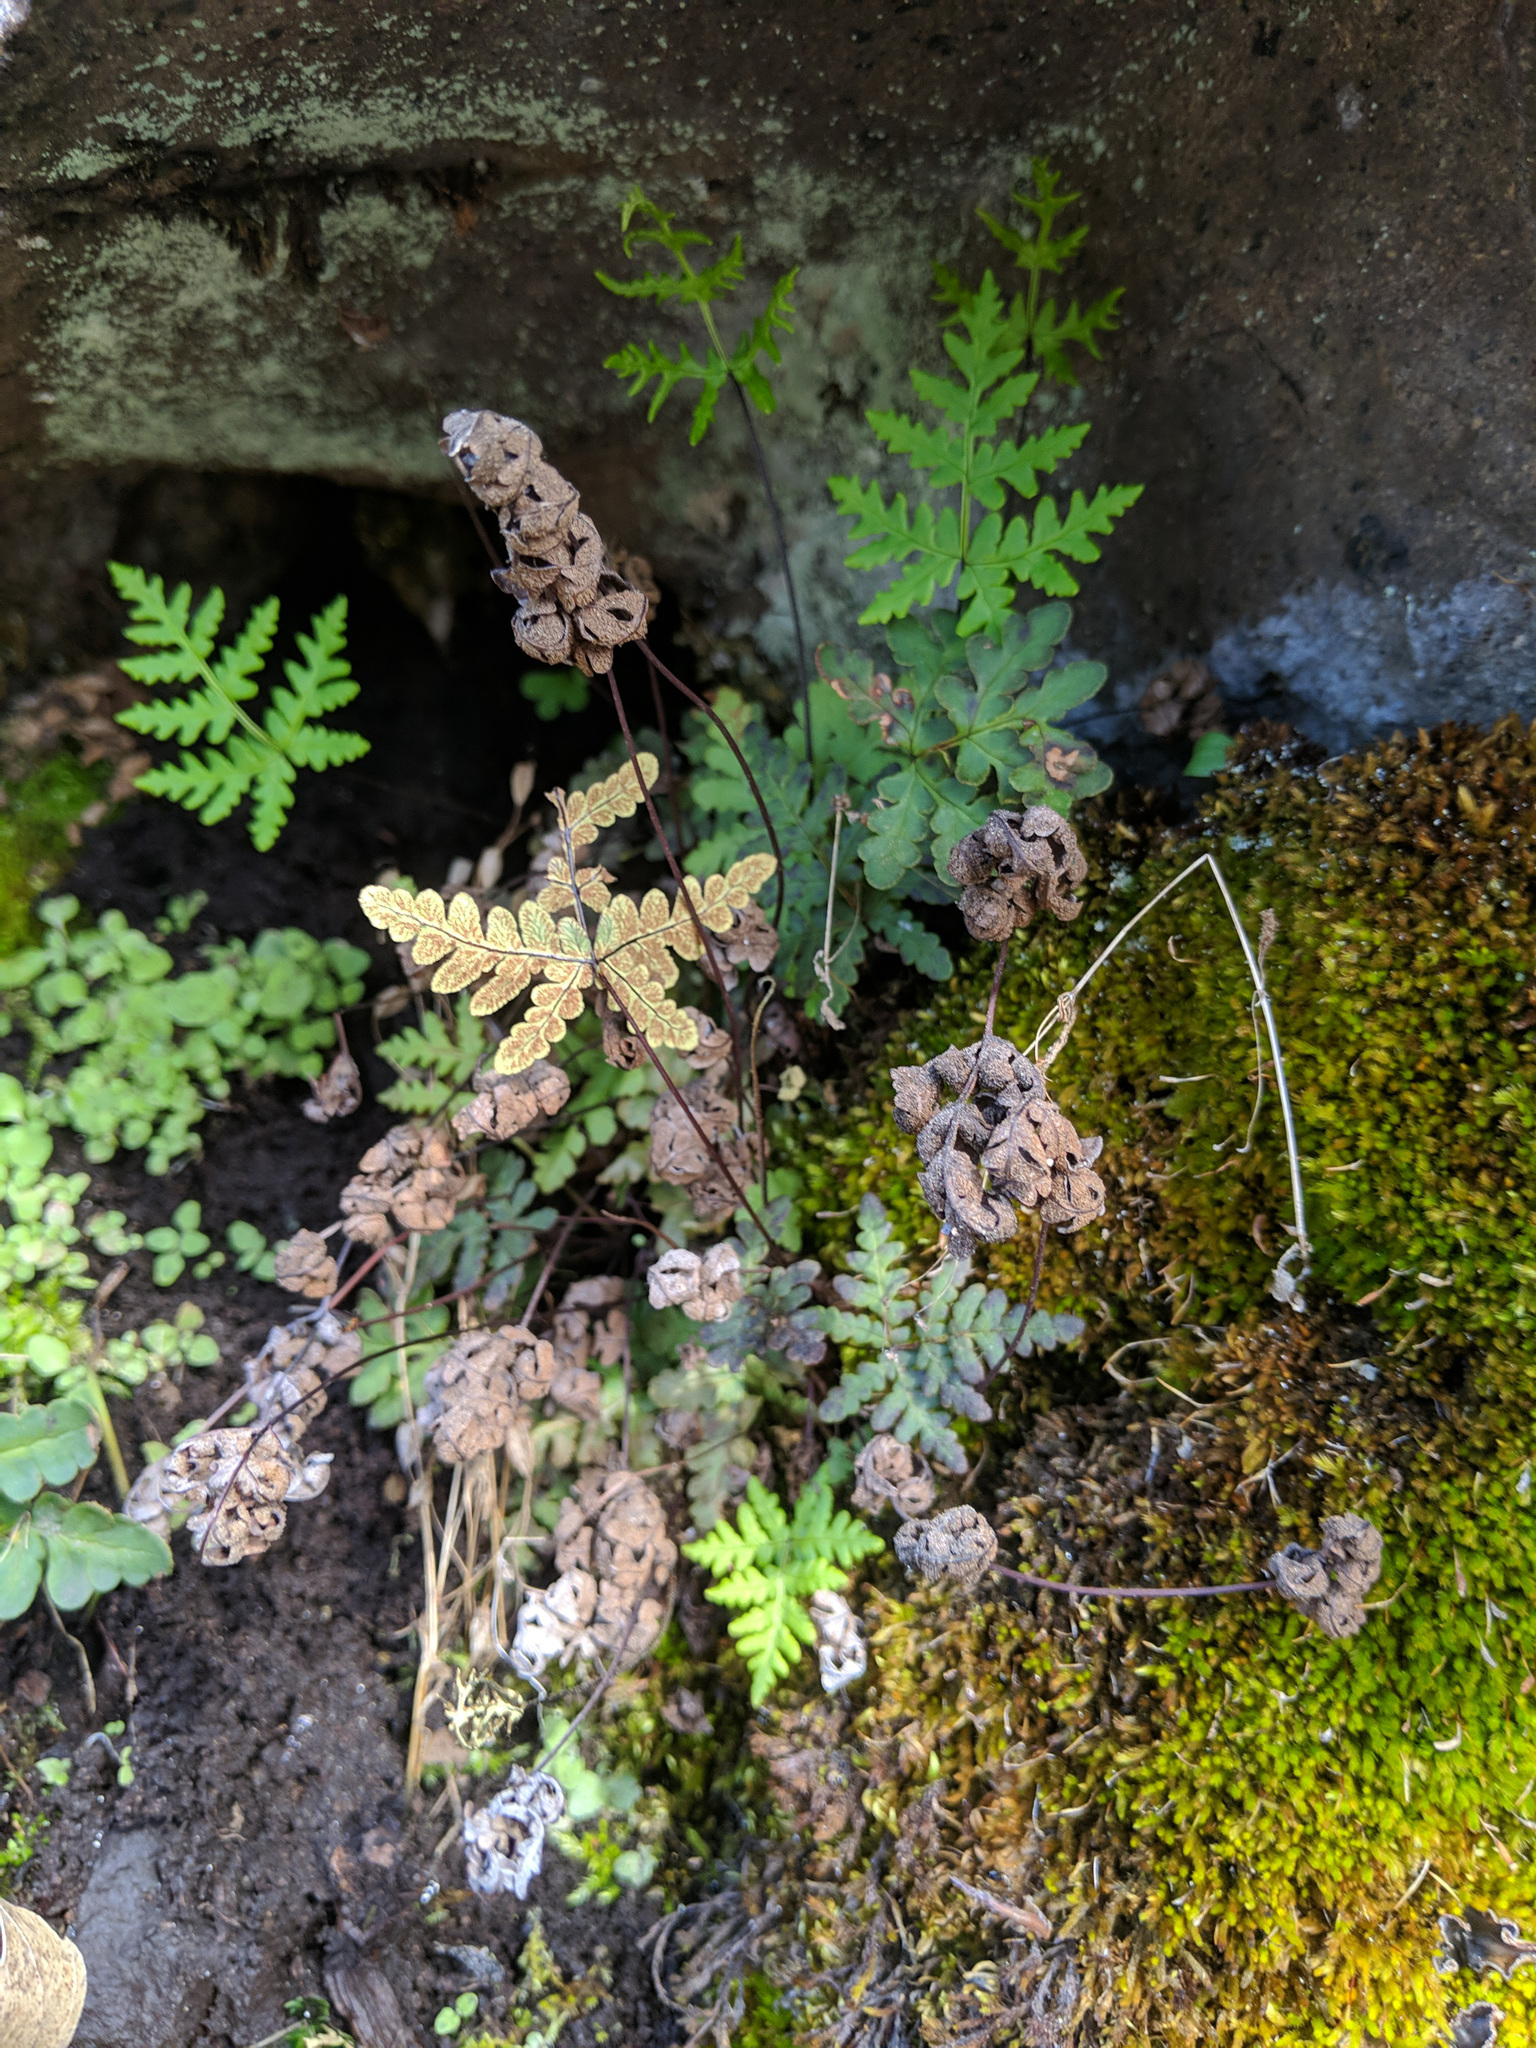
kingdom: Plantae
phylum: Tracheophyta
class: Polypodiopsida
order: Polypodiales
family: Pteridaceae
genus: Pentagramma
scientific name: Pentagramma triangularis
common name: Gold fern
